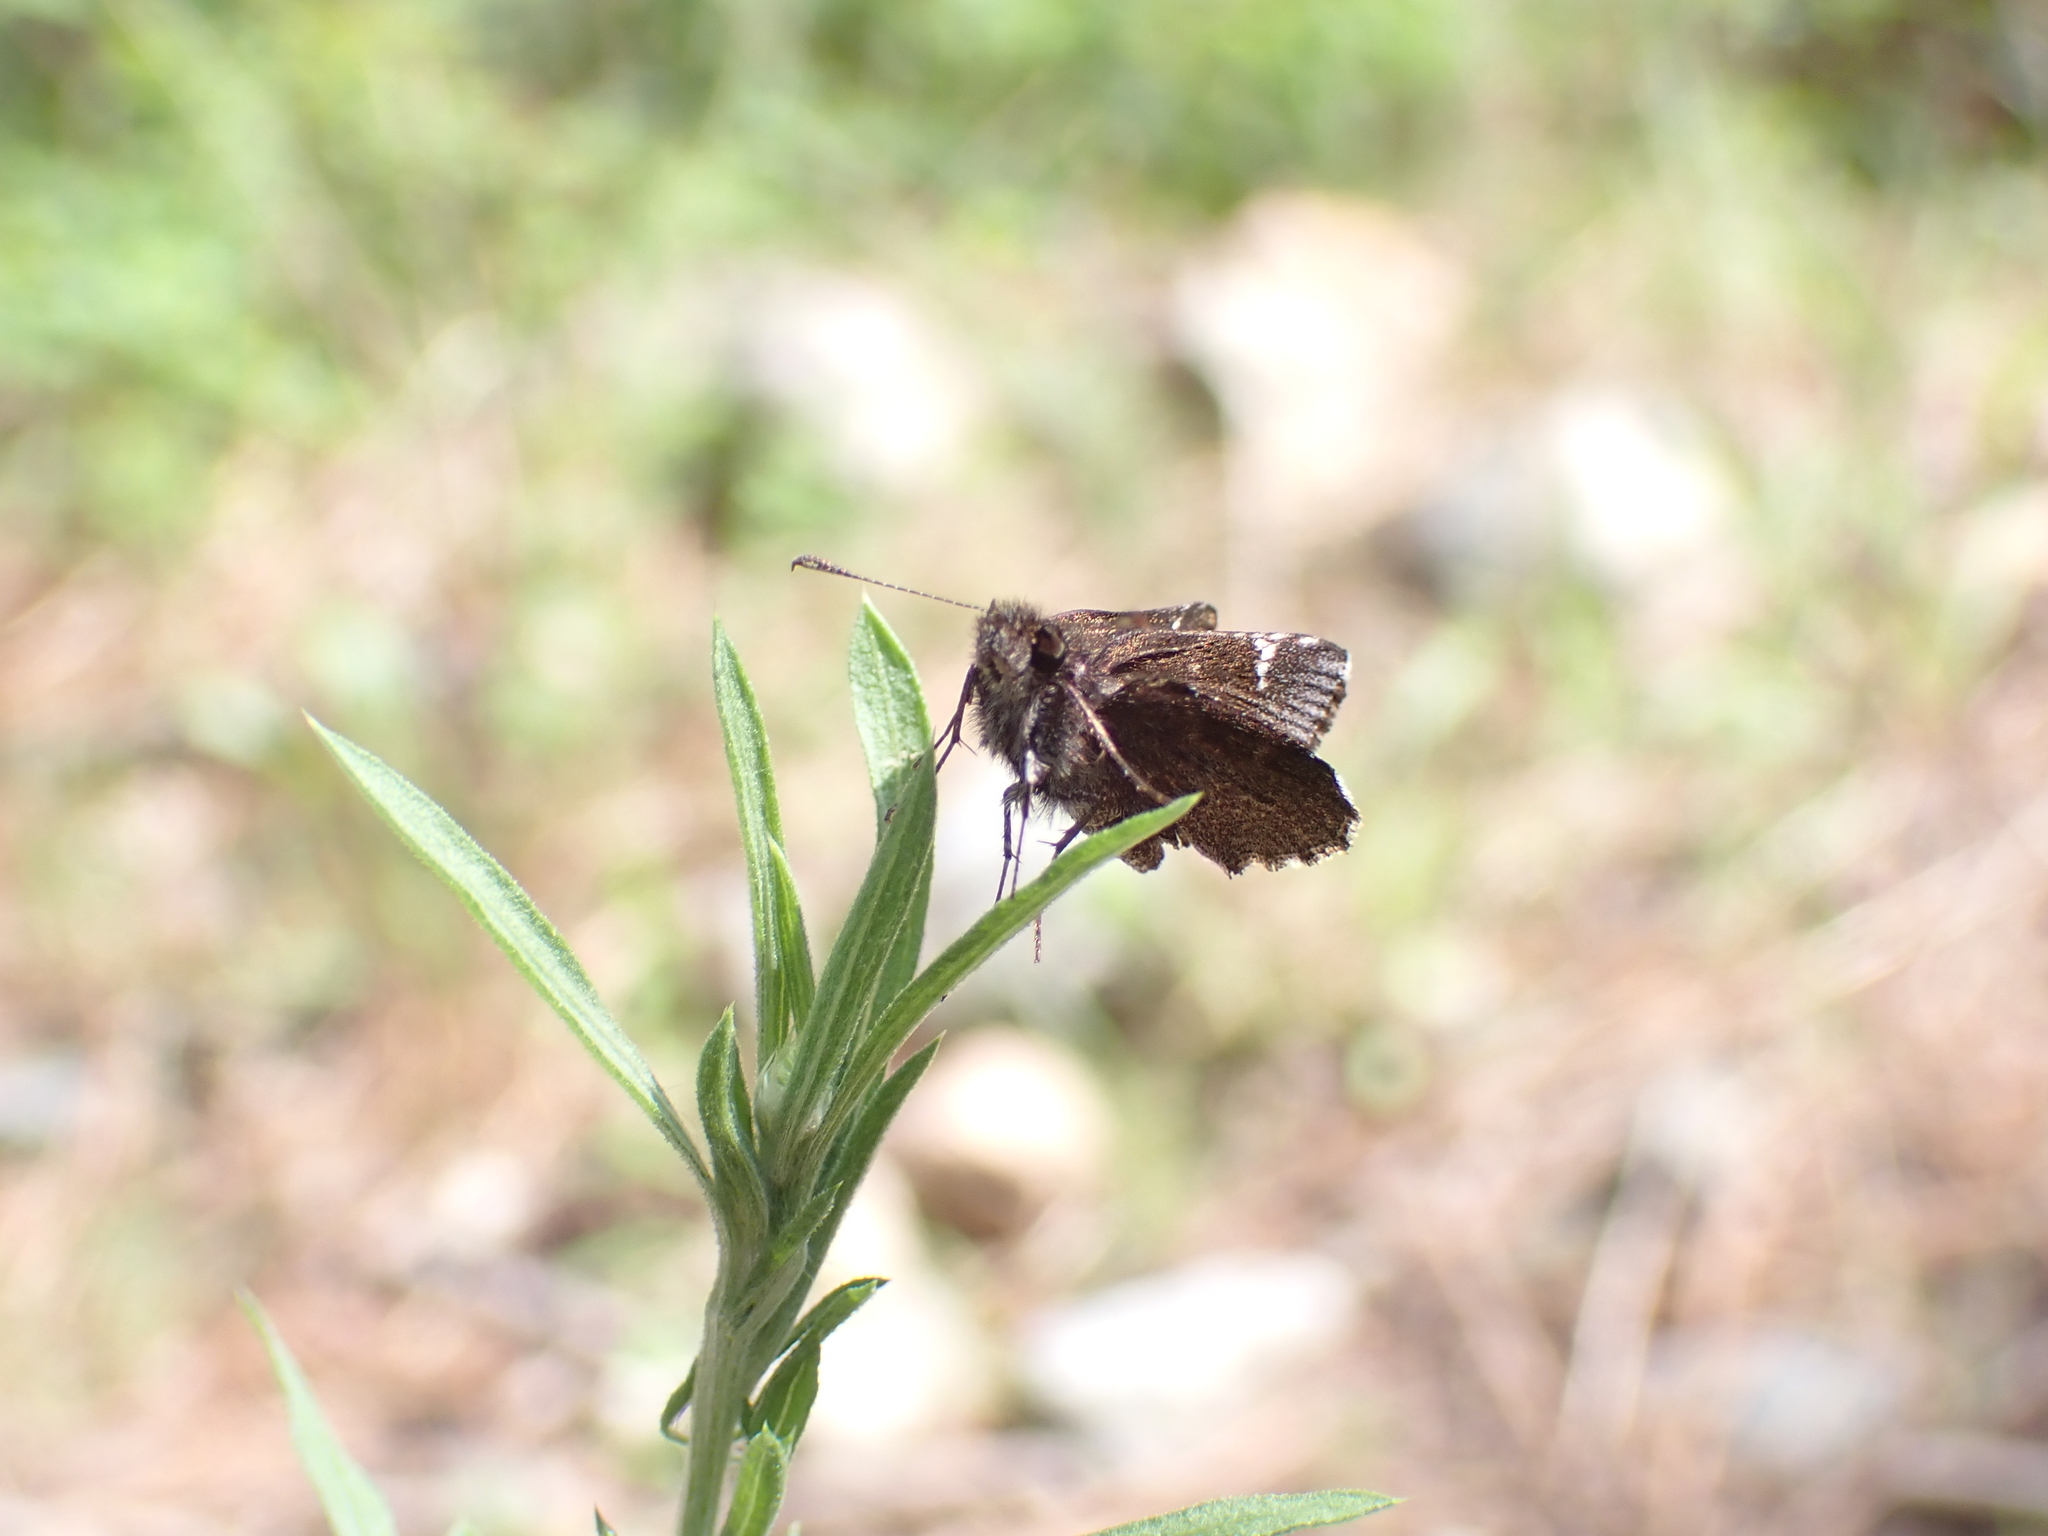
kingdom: Animalia
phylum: Arthropoda
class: Insecta
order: Lepidoptera
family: Hesperiidae
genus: Mastor
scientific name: Mastor vialis
